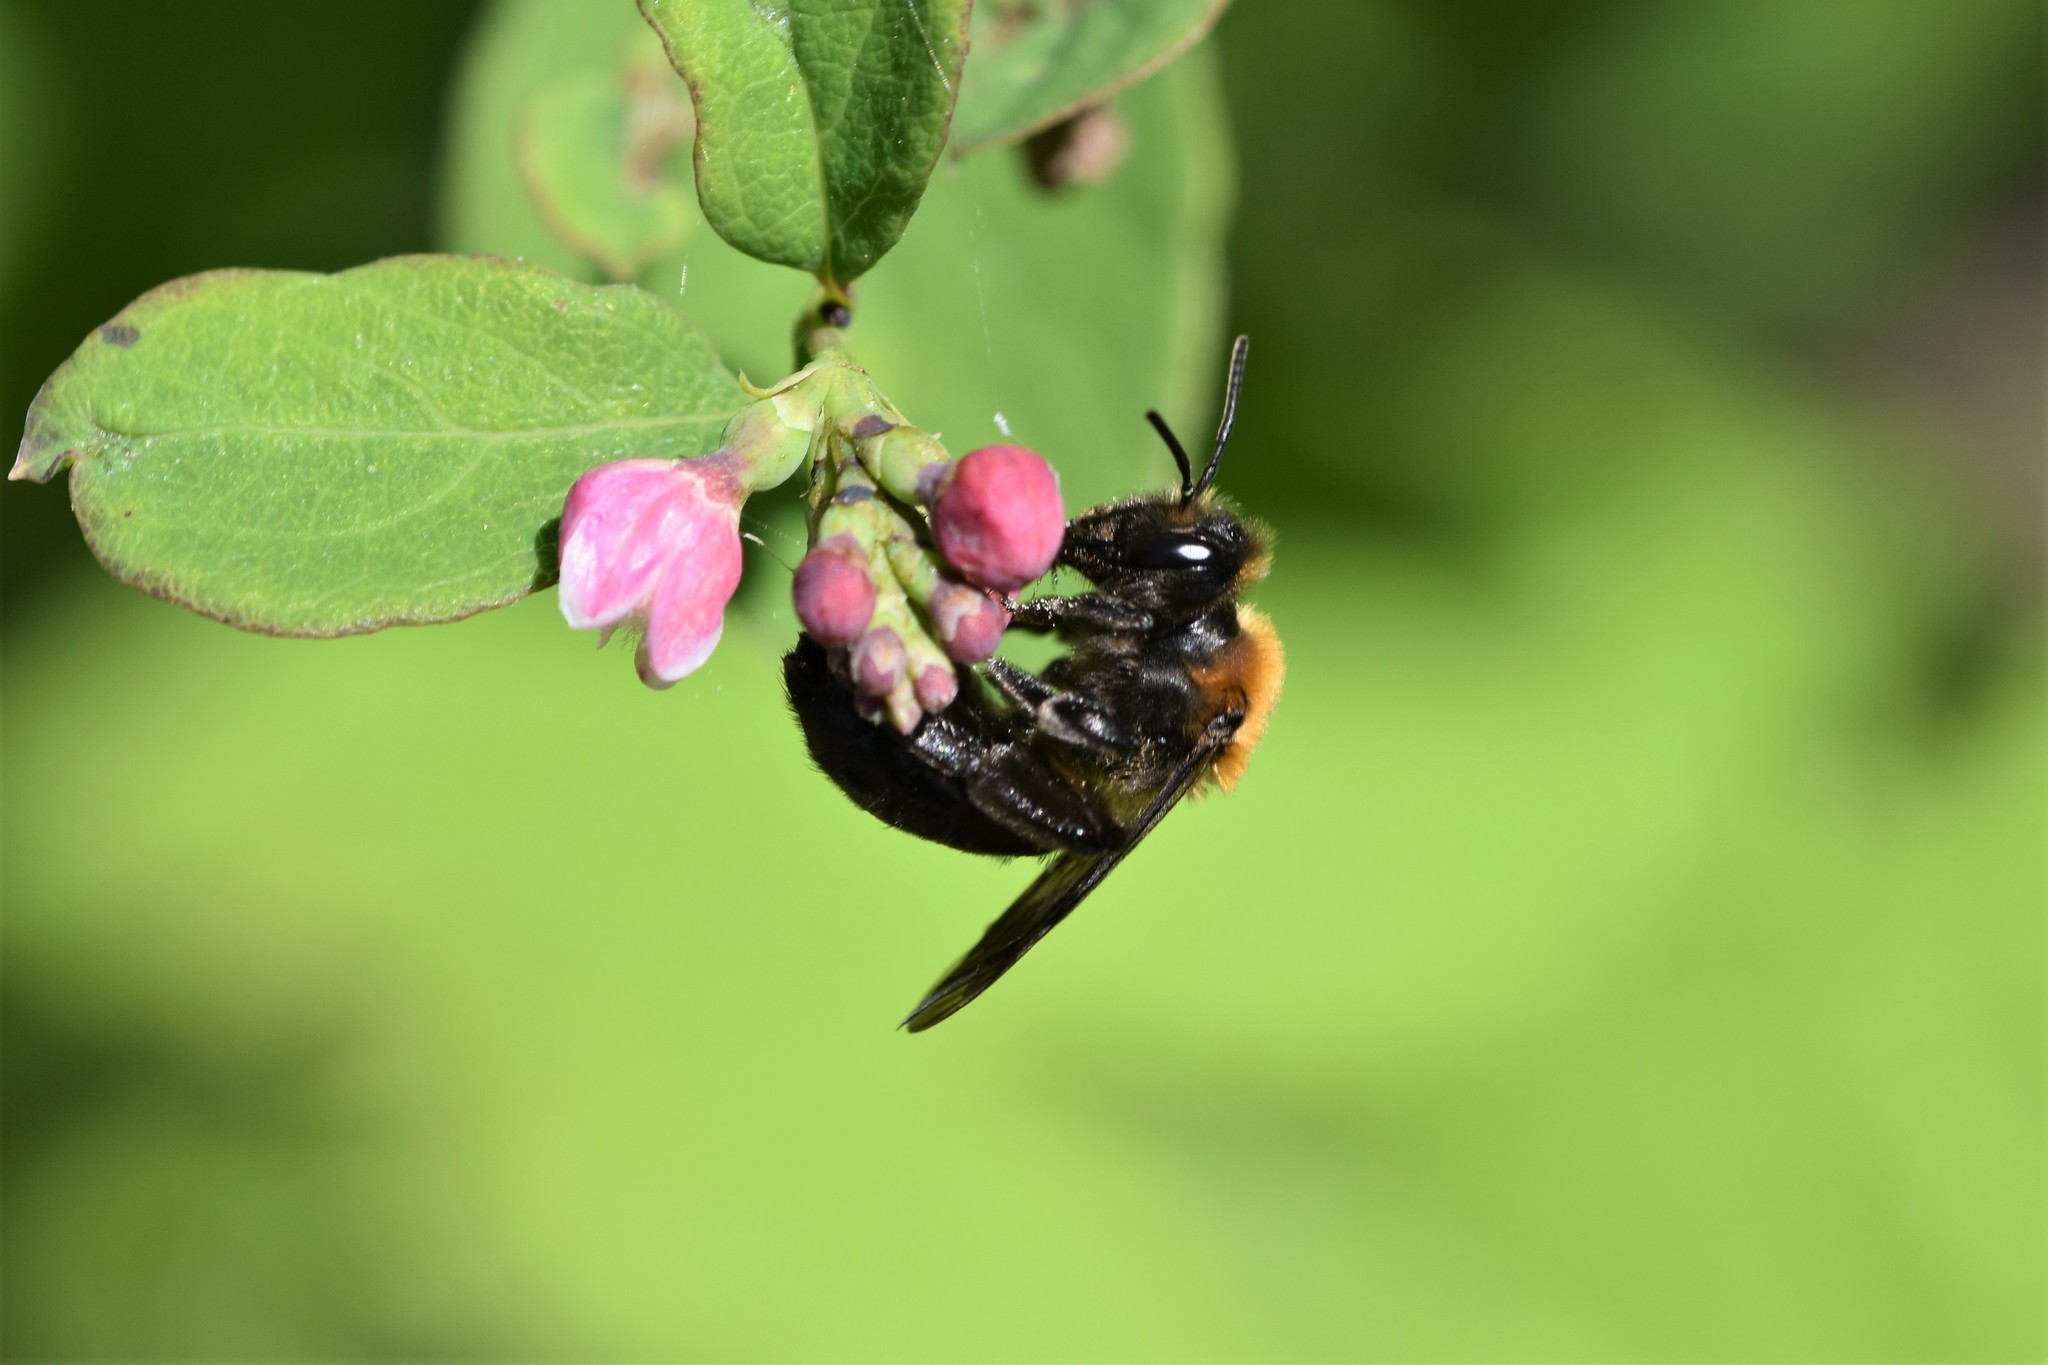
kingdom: Animalia
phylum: Arthropoda
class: Insecta
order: Hymenoptera
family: Andrenidae
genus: Andrena
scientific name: Andrena amphibola
